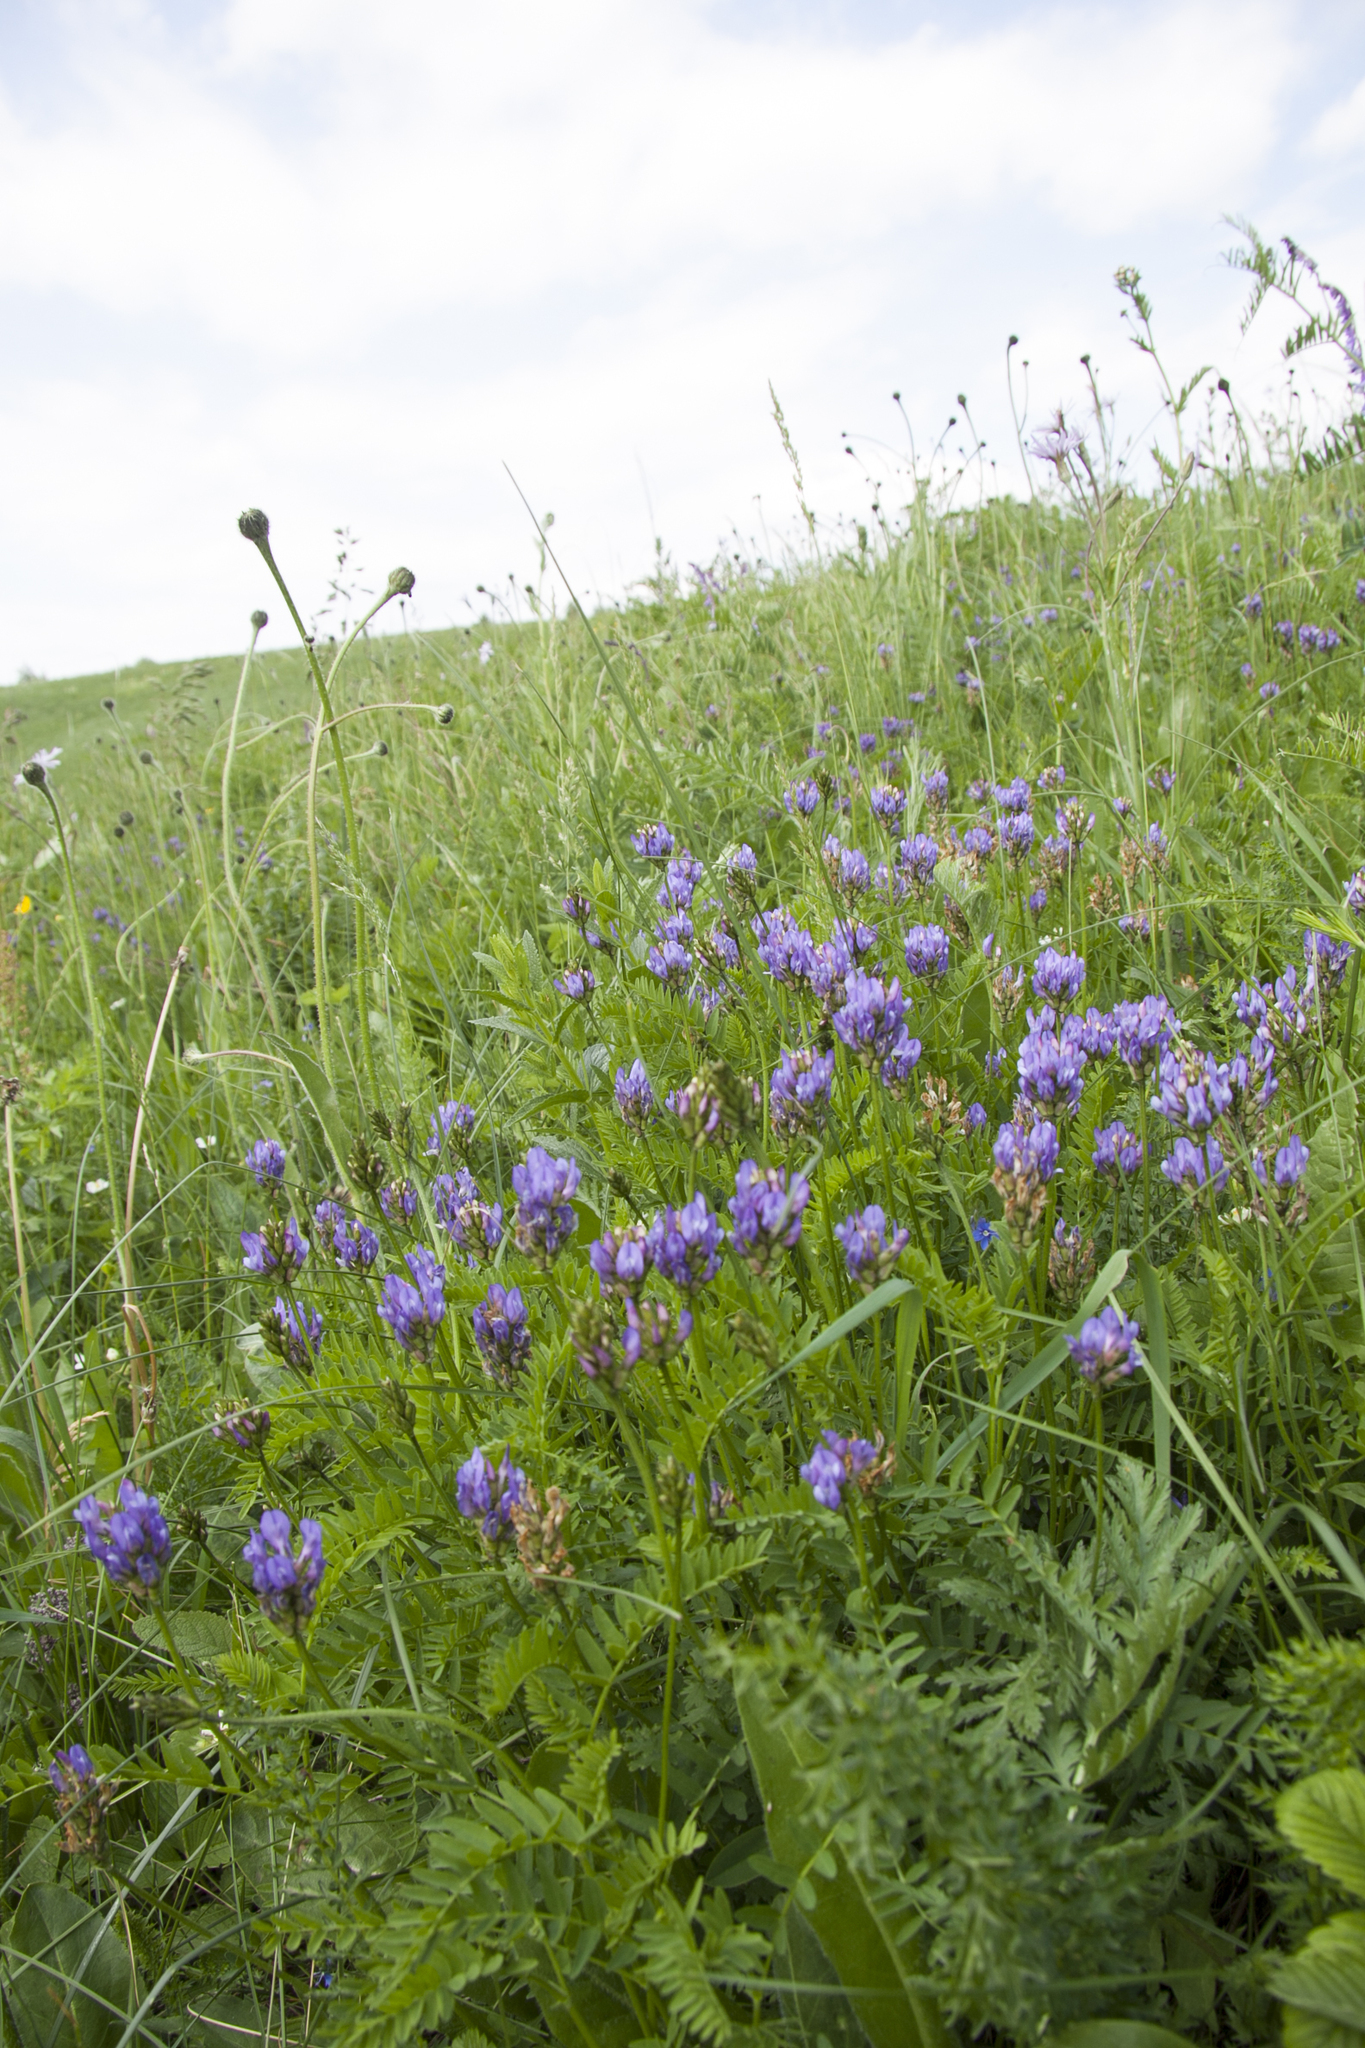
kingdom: Plantae
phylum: Tracheophyta
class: Magnoliopsida
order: Fabales
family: Fabaceae
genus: Astragalus
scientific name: Astragalus danicus
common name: Purple milk-vetch
